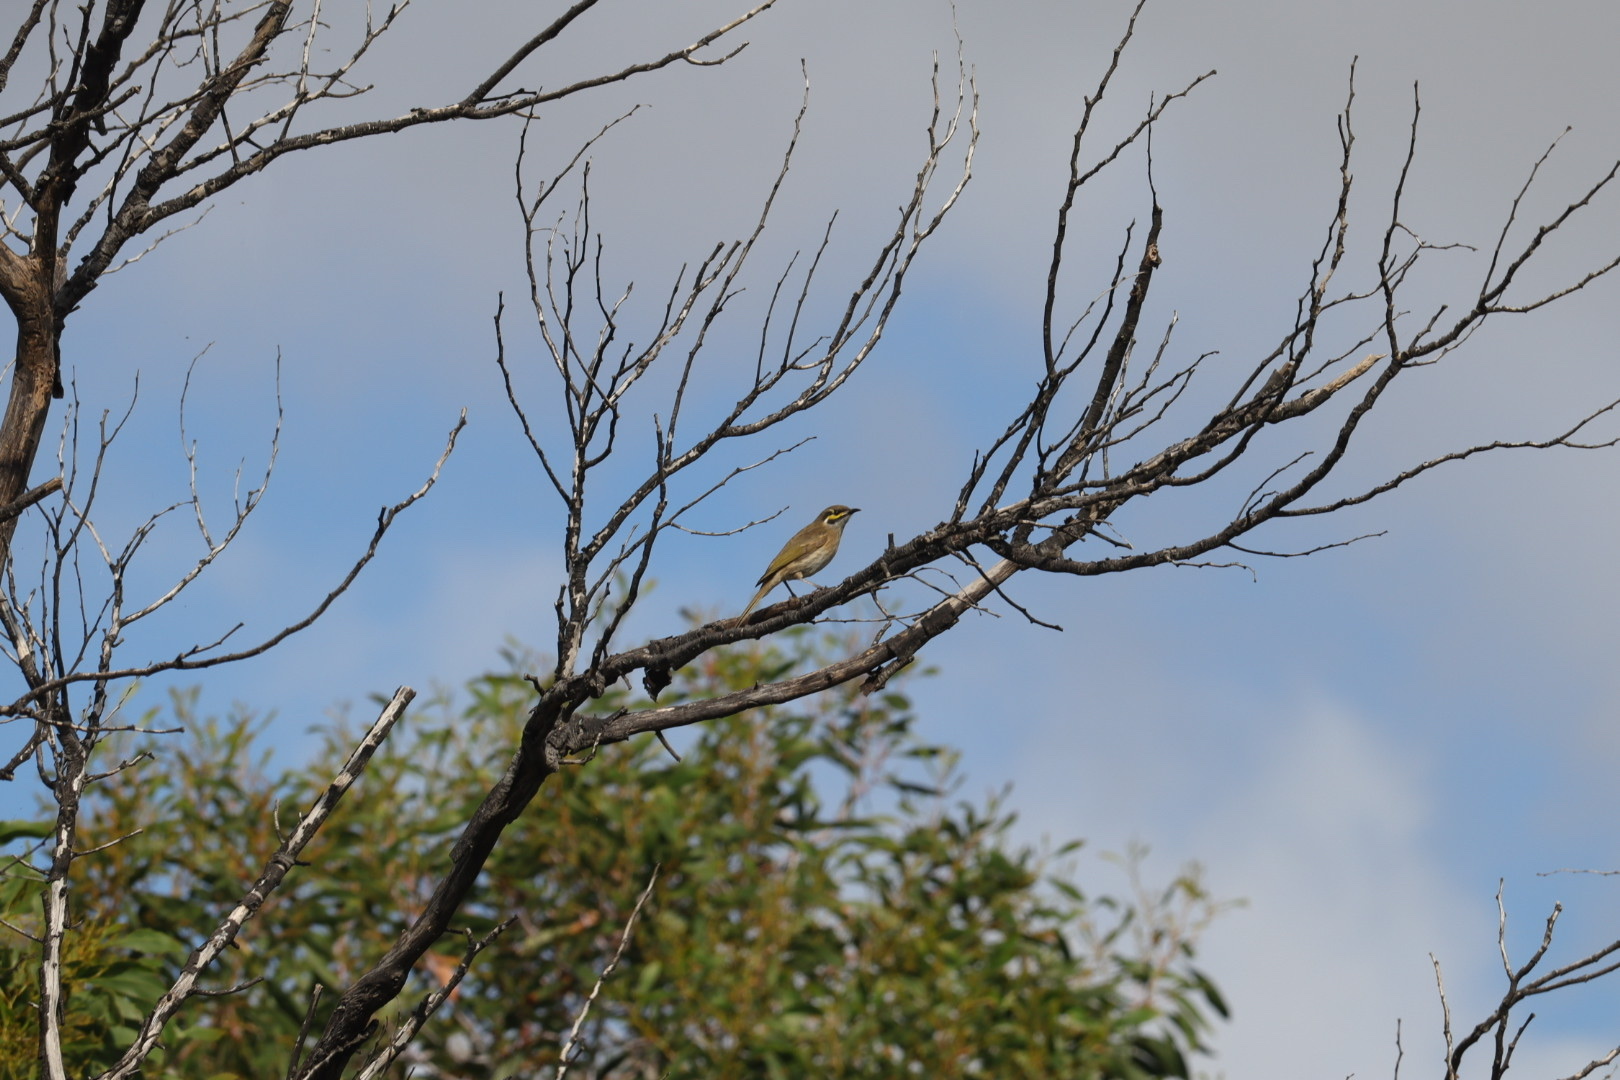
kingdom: Animalia
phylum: Chordata
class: Aves
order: Passeriformes
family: Meliphagidae
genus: Caligavis
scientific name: Caligavis chrysops
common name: Yellow-faced honeyeater
